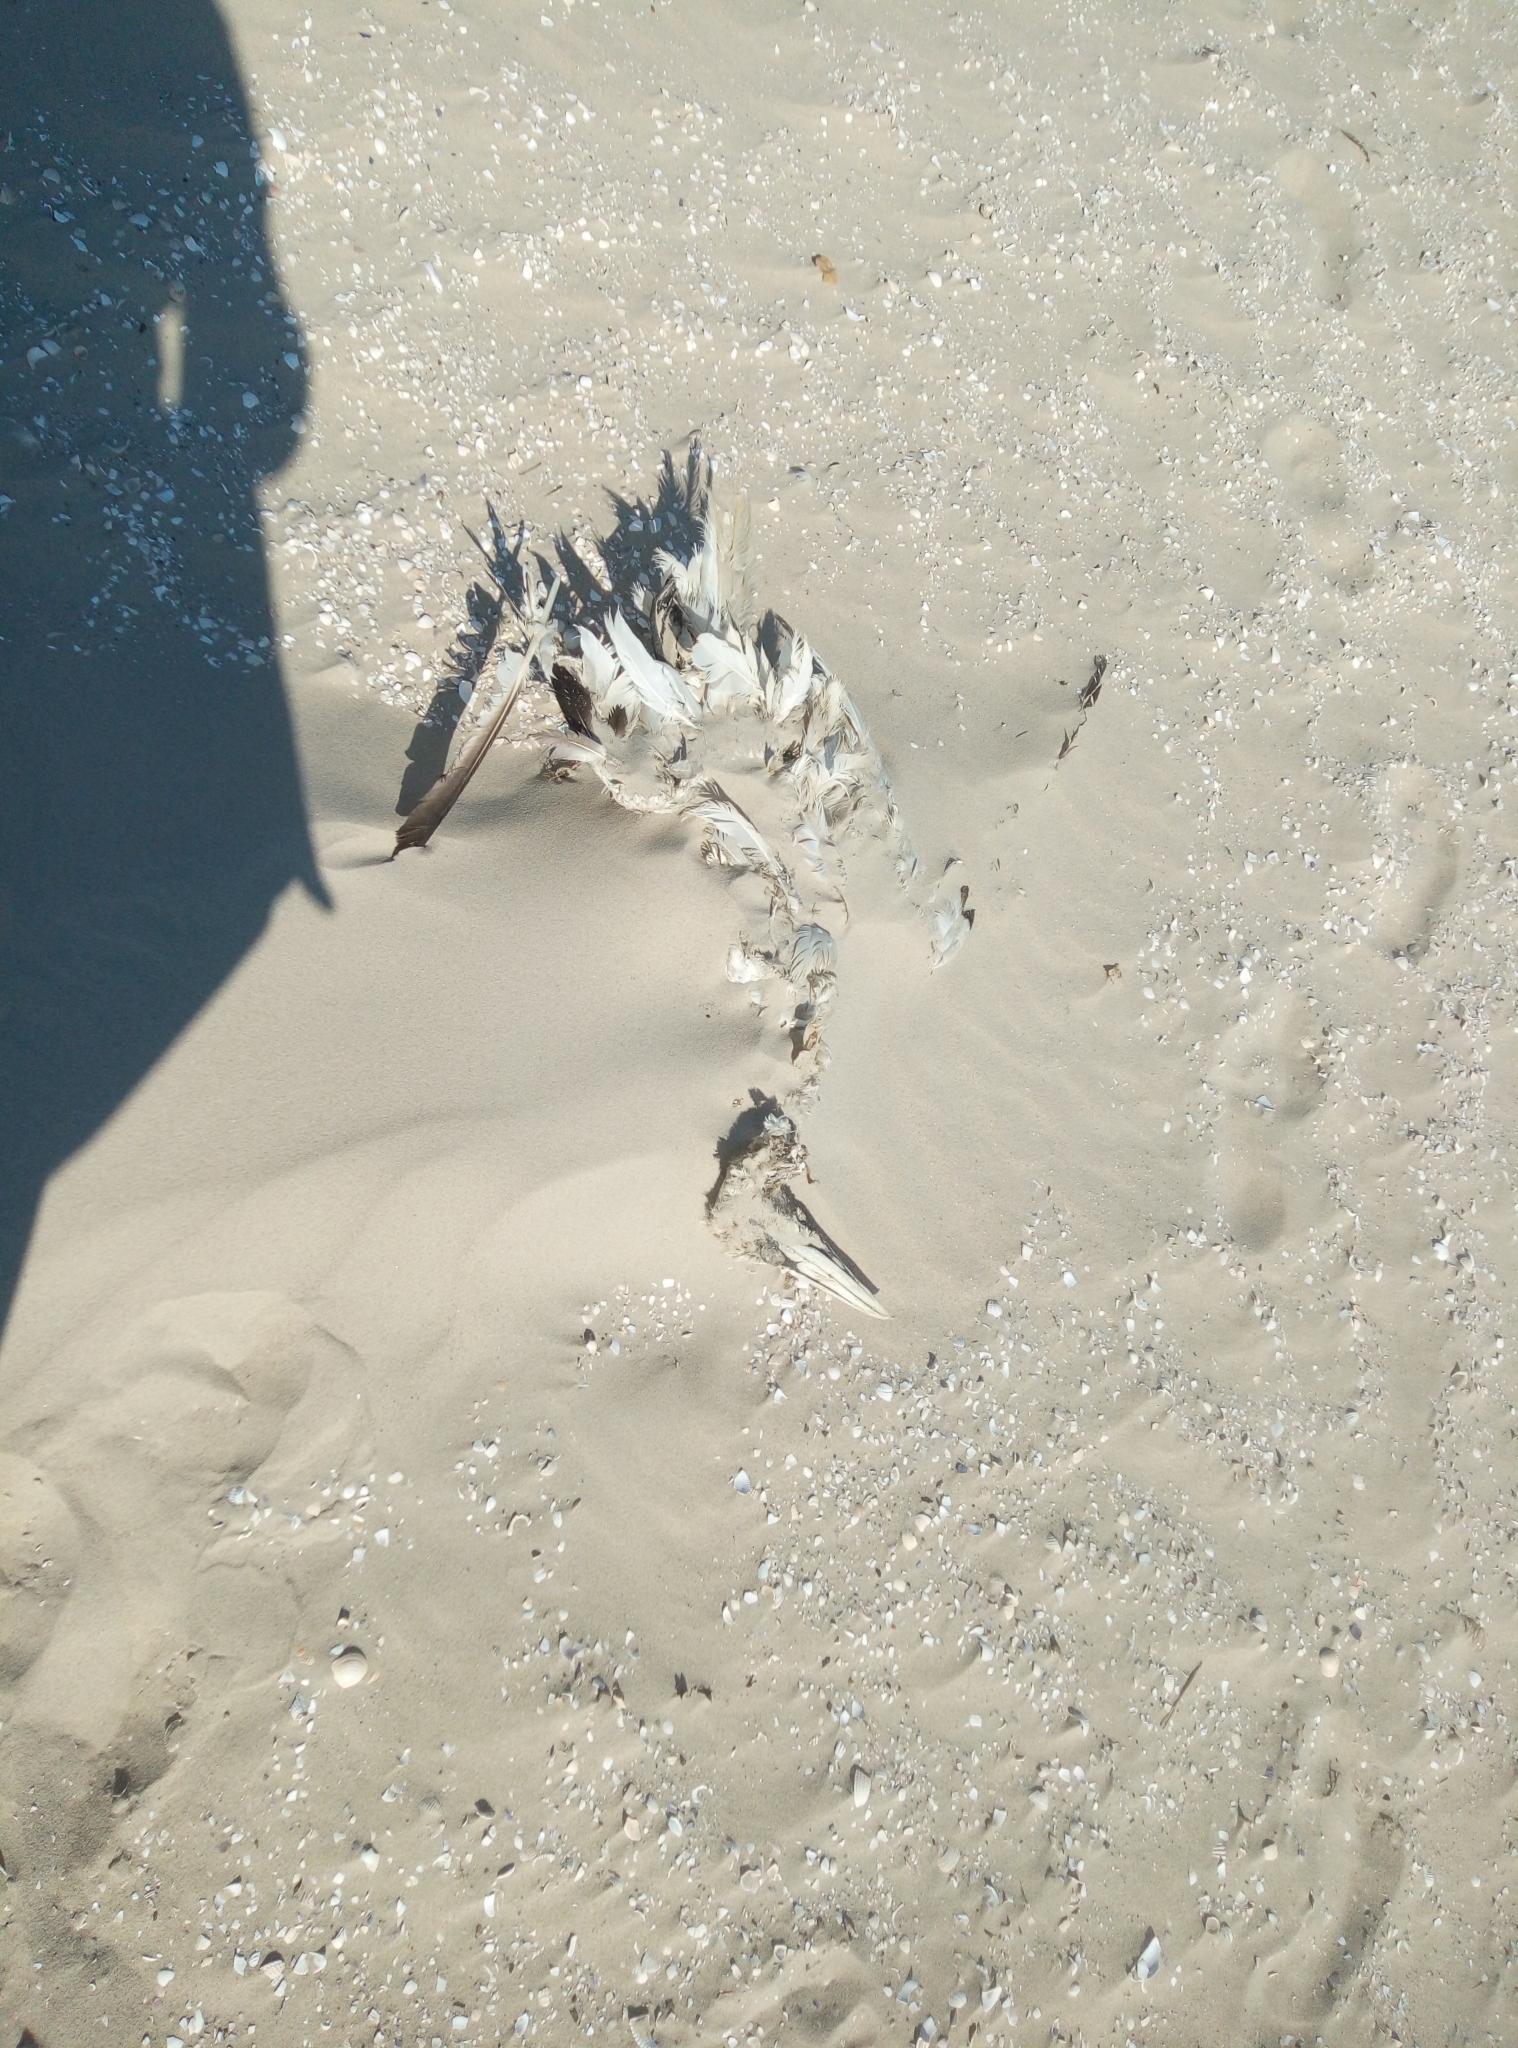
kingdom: Animalia
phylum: Chordata
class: Aves
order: Suliformes
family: Sulidae
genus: Morus
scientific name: Morus bassanus
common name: Northern gannet
